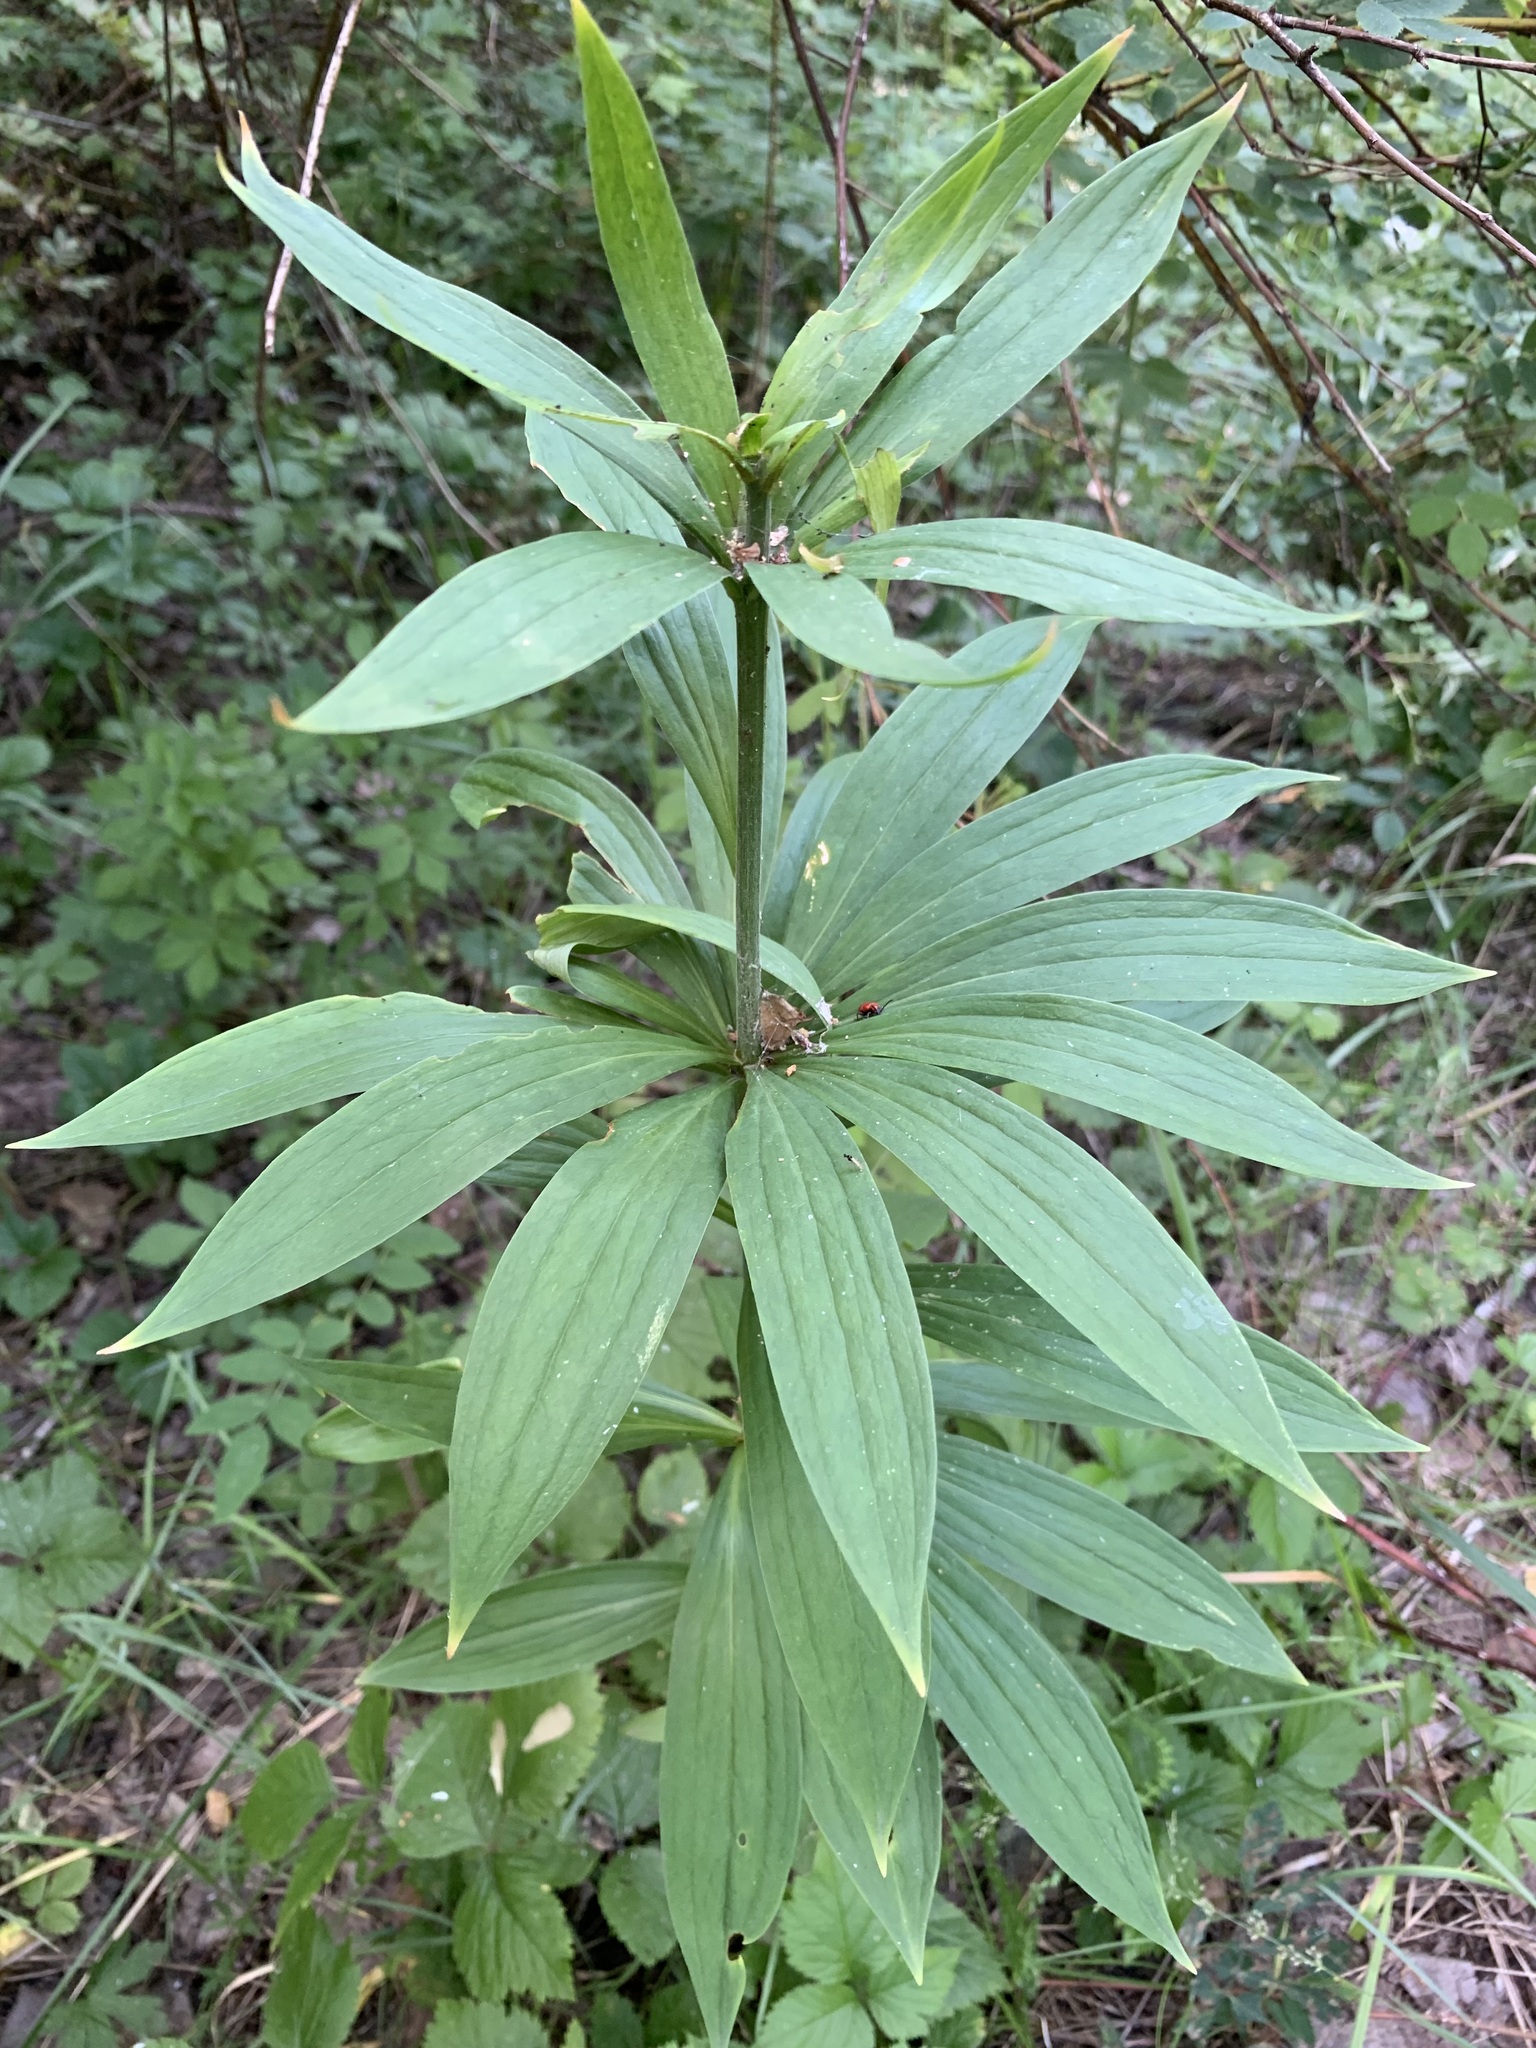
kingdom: Plantae
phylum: Tracheophyta
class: Liliopsida
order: Liliales
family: Liliaceae
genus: Lilium
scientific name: Lilium martagon
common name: Martagon lily
